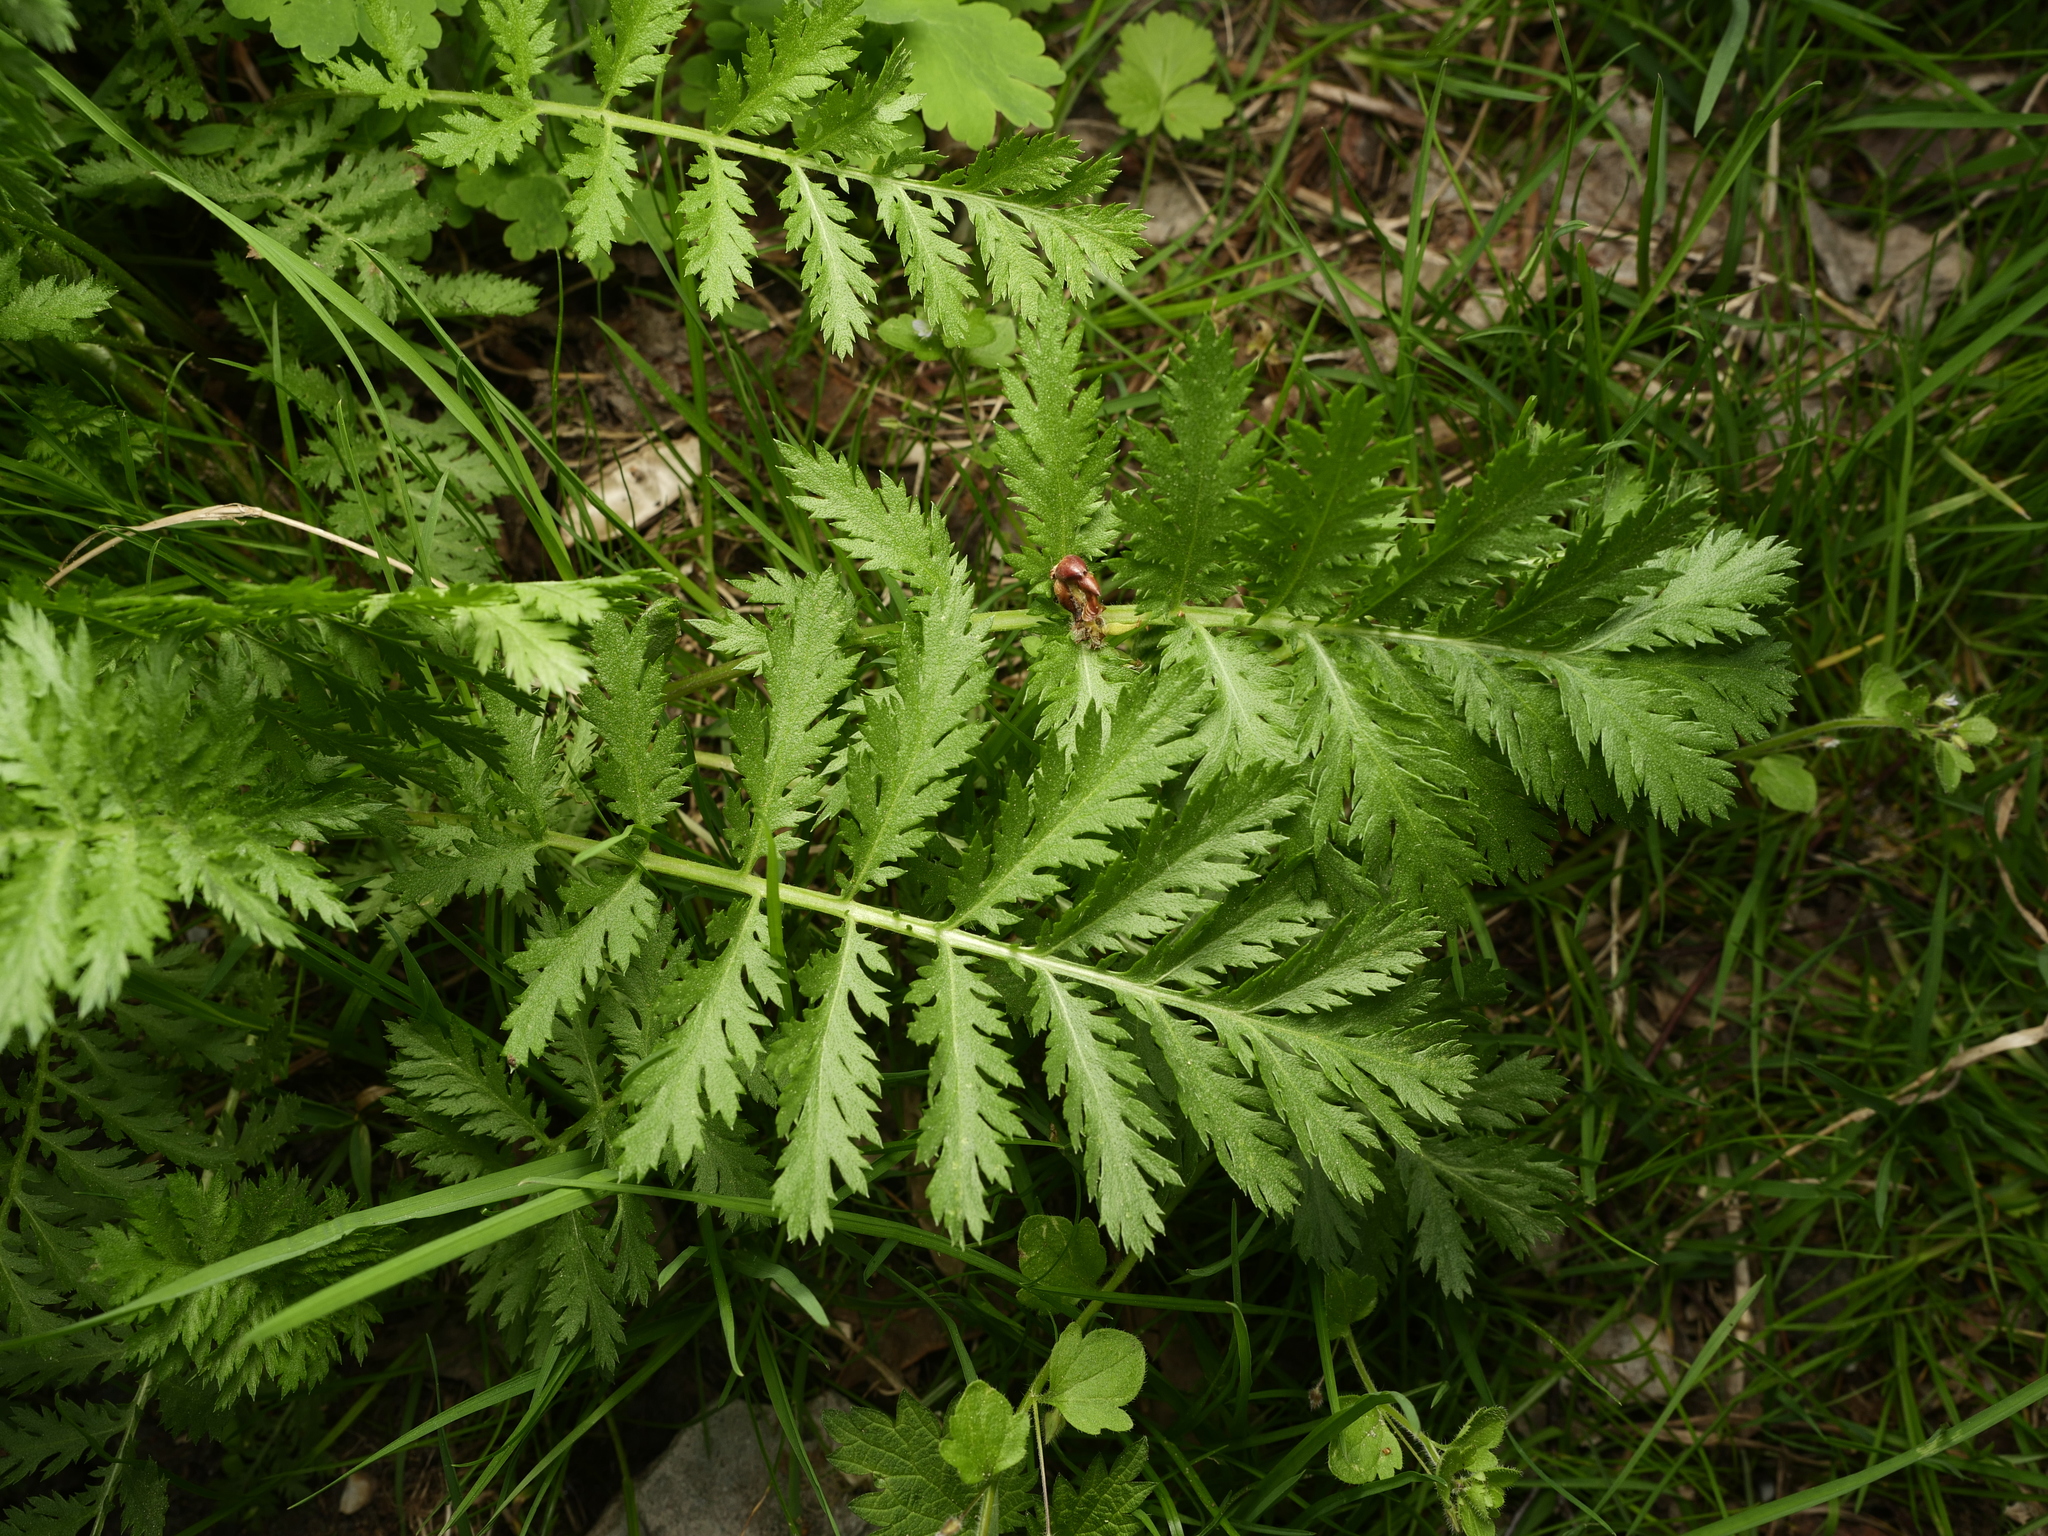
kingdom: Plantae
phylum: Tracheophyta
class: Magnoliopsida
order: Asterales
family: Asteraceae
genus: Tanacetum
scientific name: Tanacetum vulgare
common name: Common tansy
